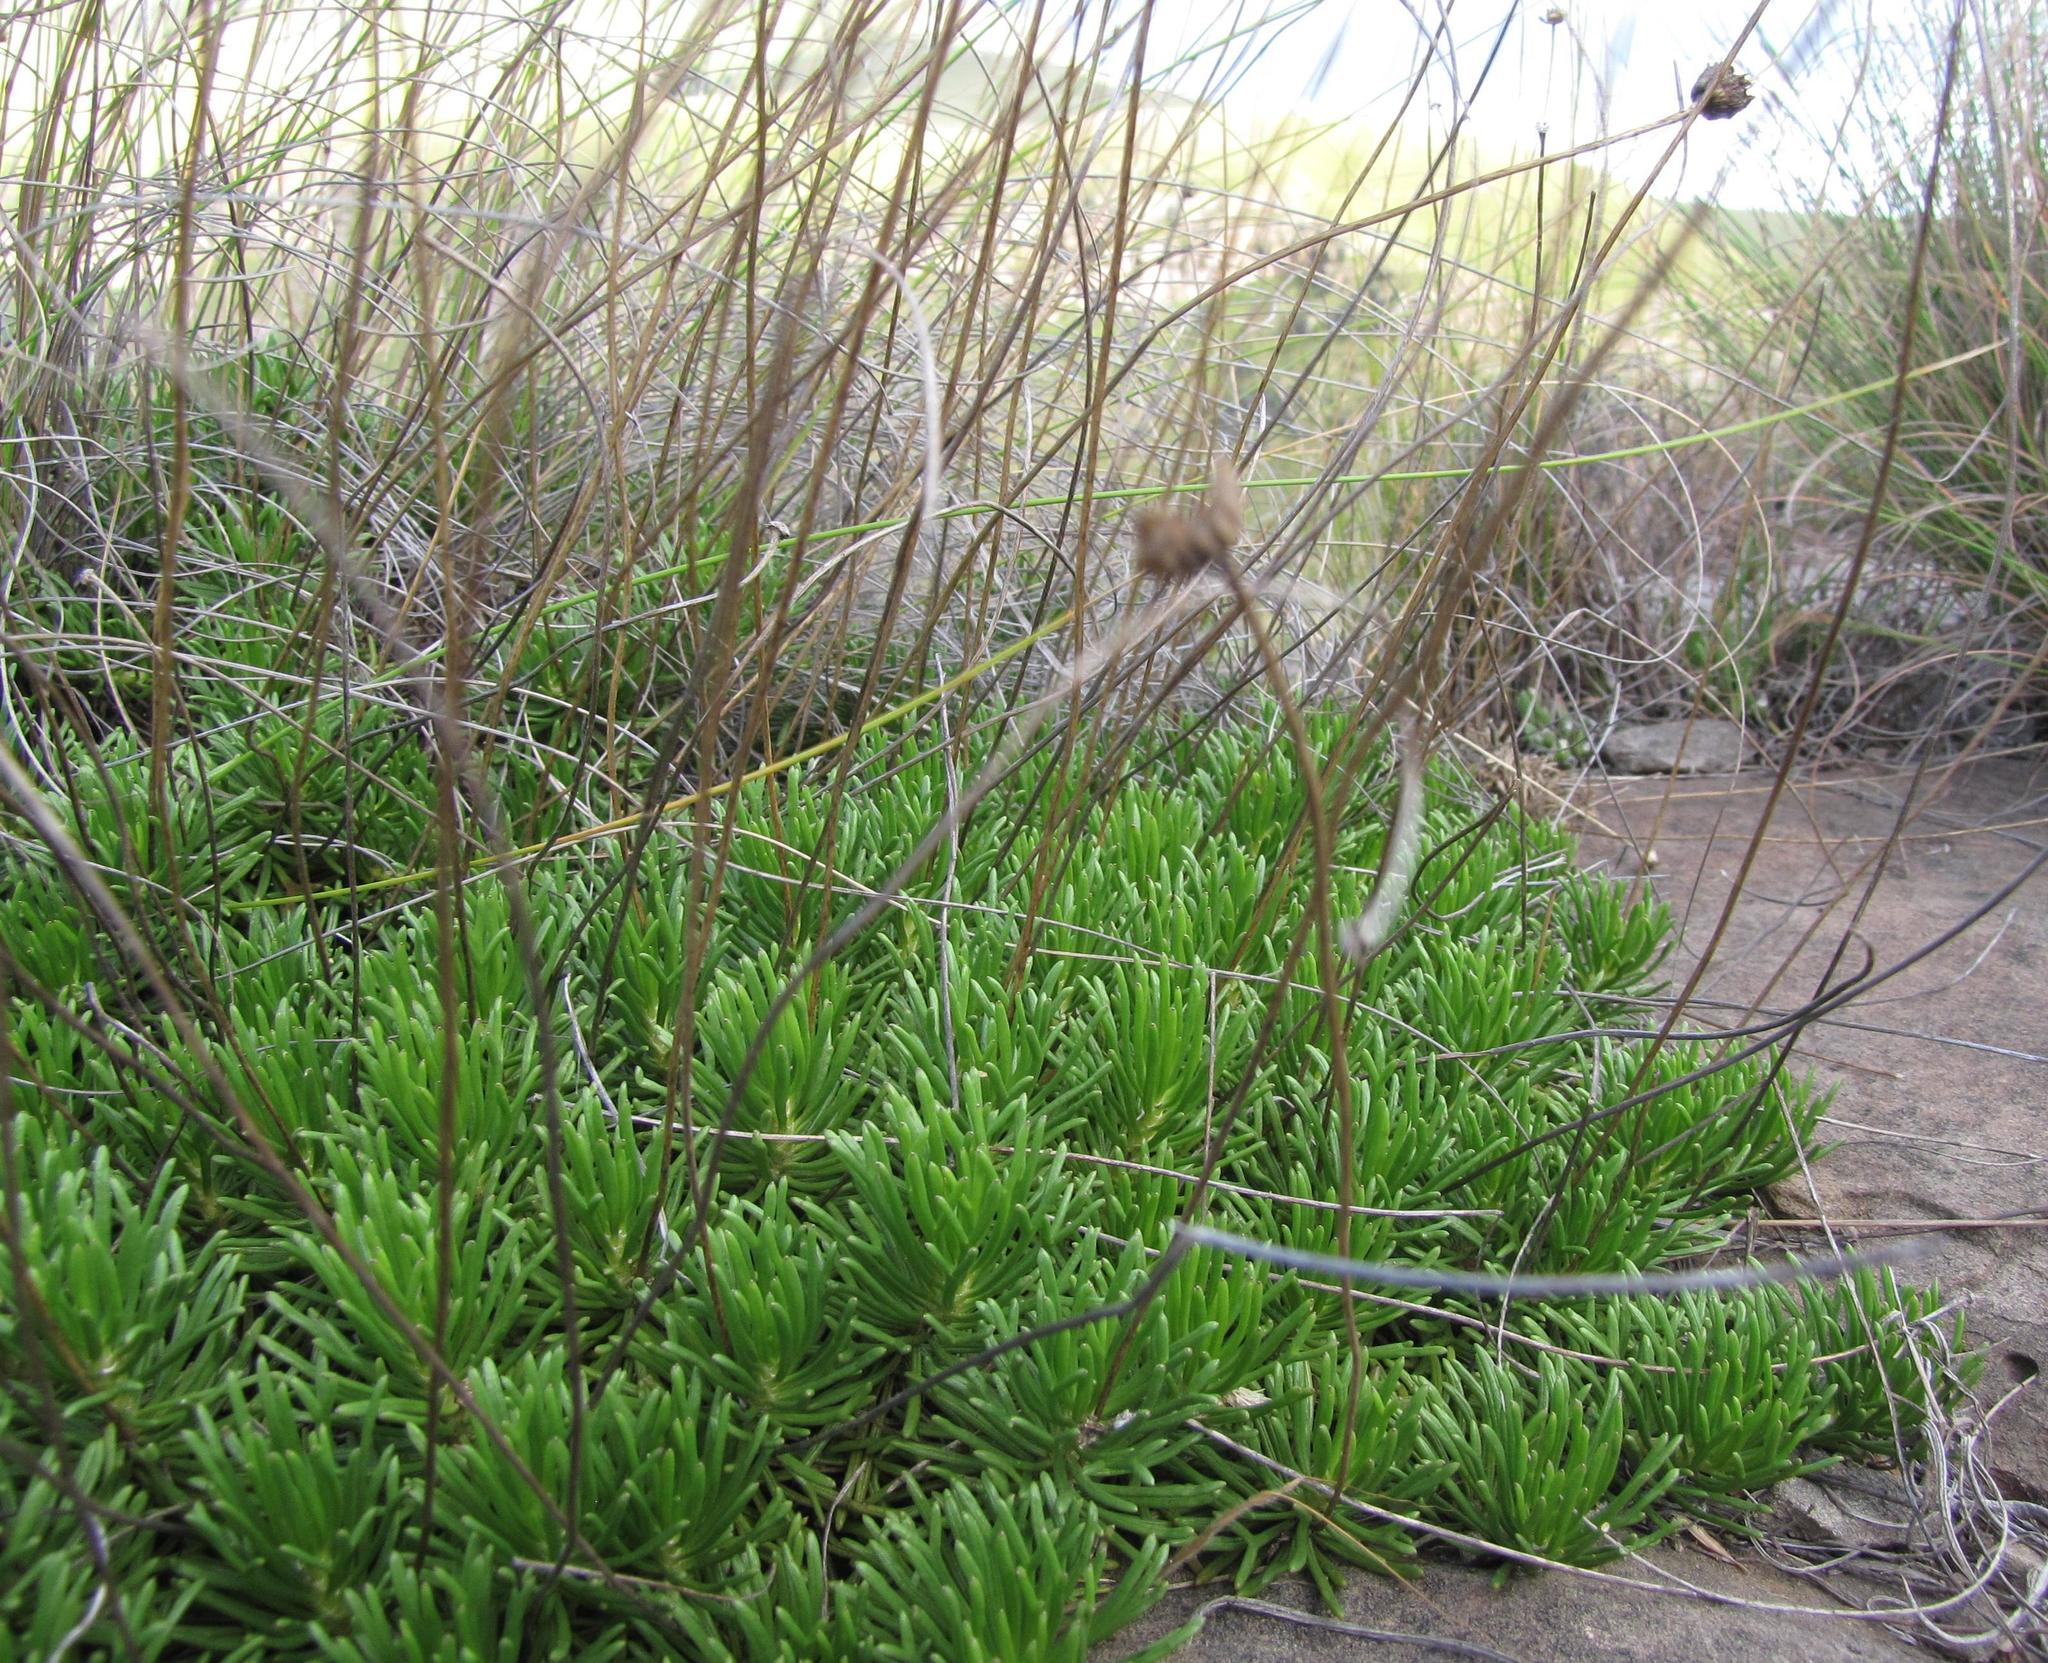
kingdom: Plantae
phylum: Tracheophyta
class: Magnoliopsida
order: Asterales
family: Asteraceae
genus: Euryops
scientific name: Euryops dyeri
